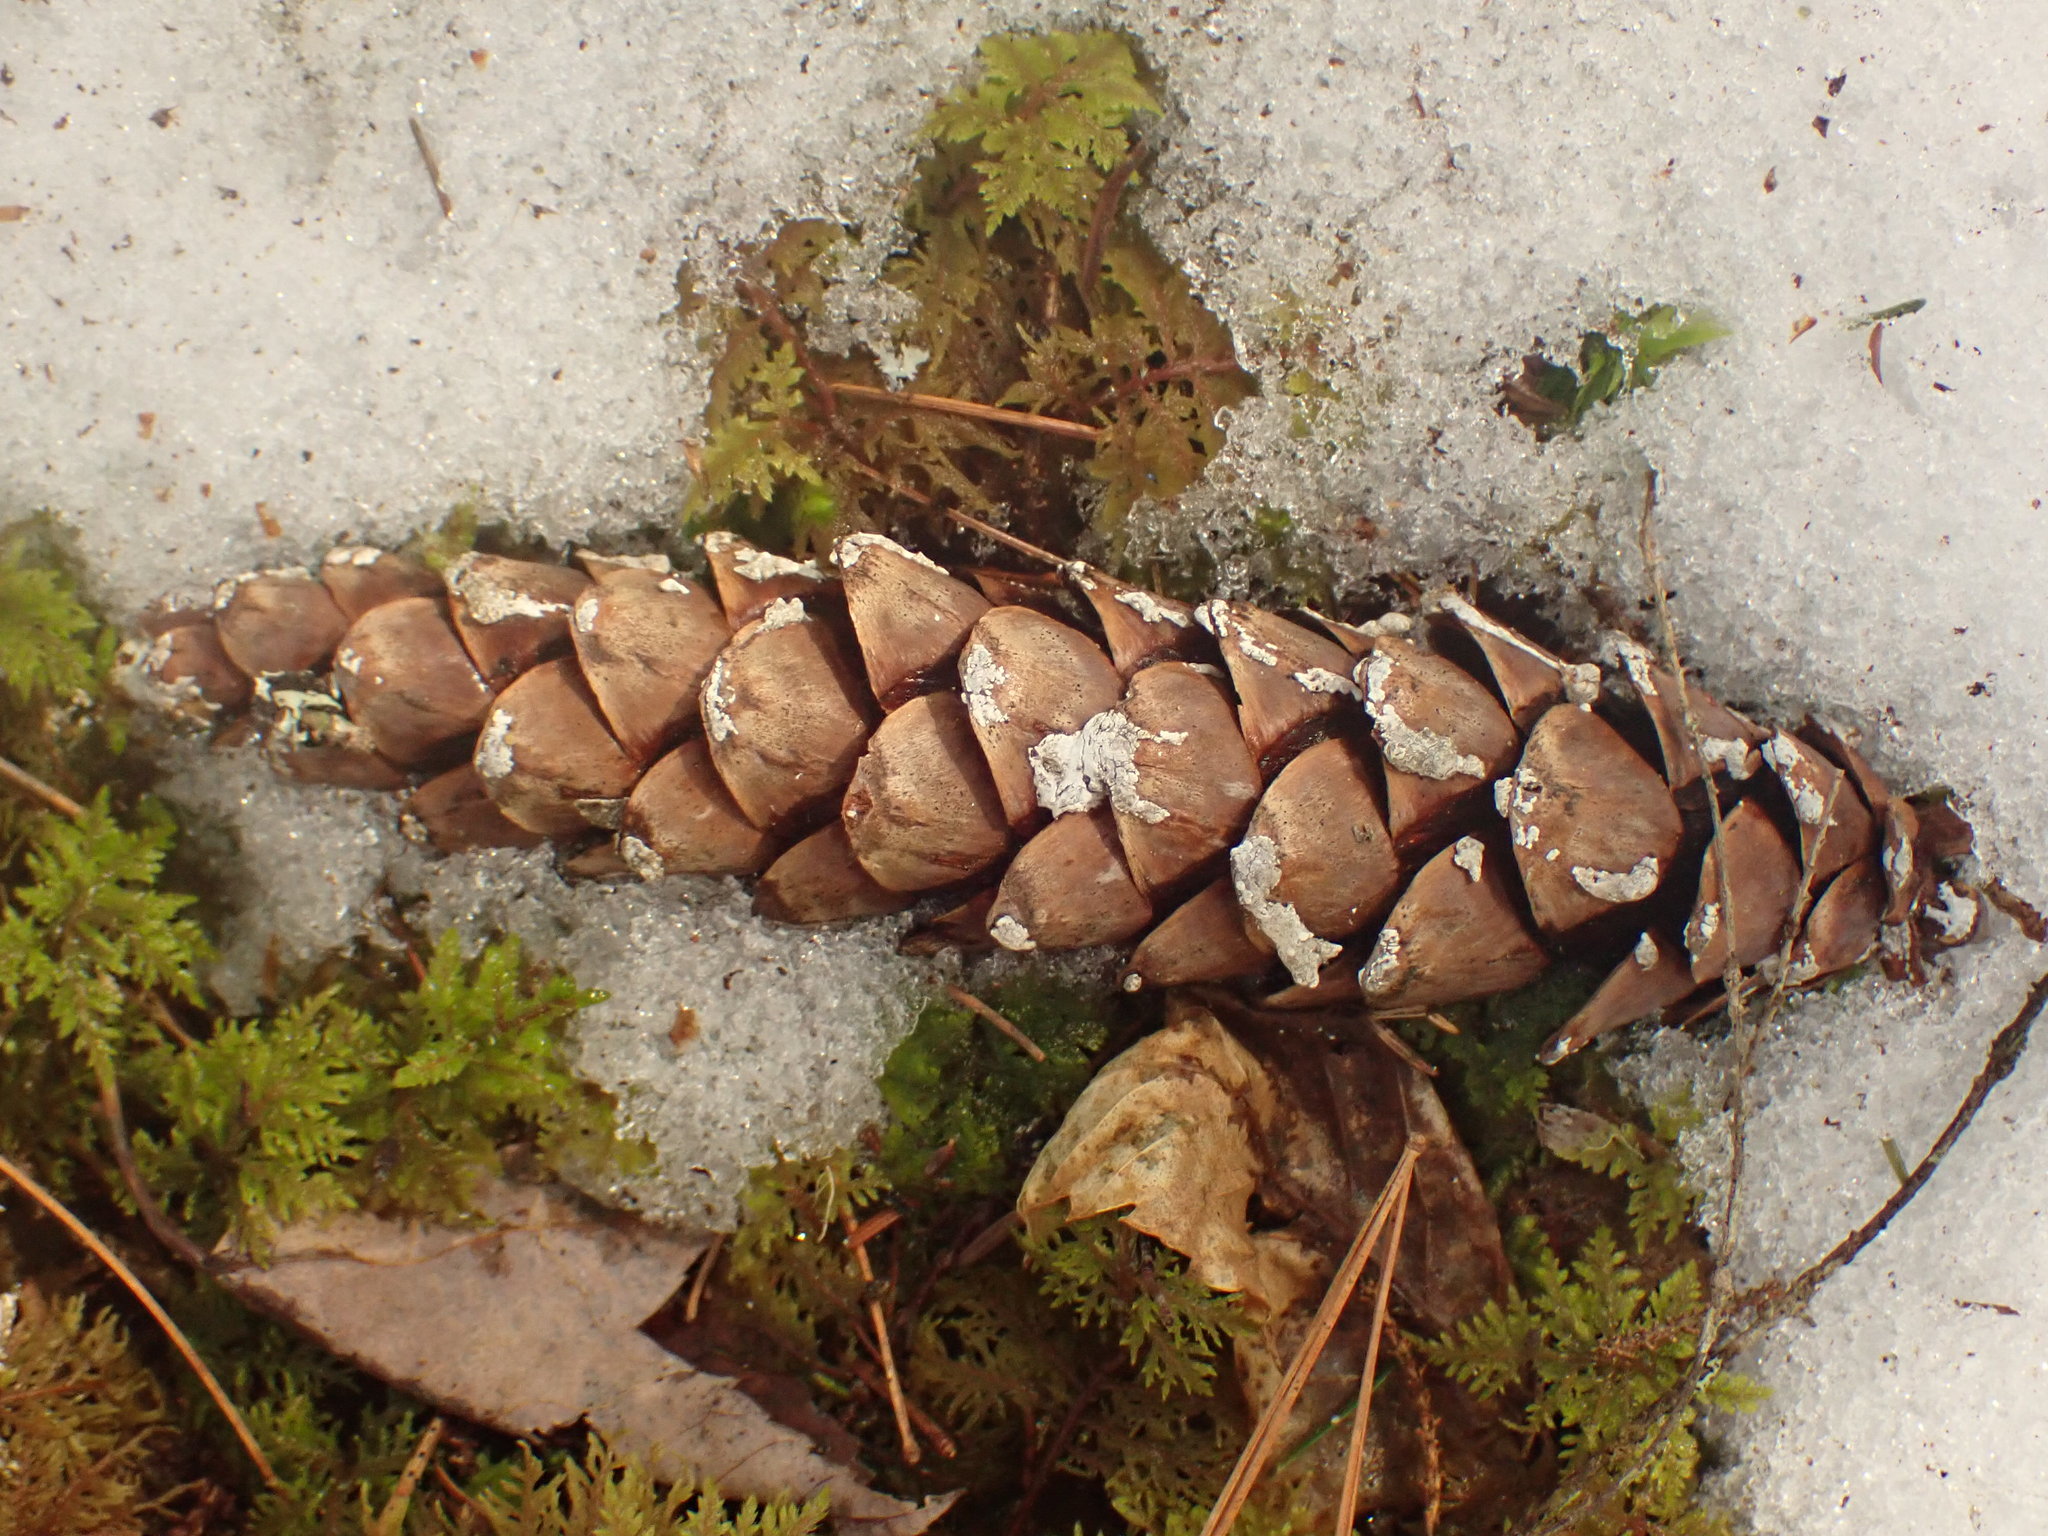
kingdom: Plantae
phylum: Tracheophyta
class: Pinopsida
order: Pinales
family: Pinaceae
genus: Pinus
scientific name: Pinus strobus
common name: Weymouth pine
